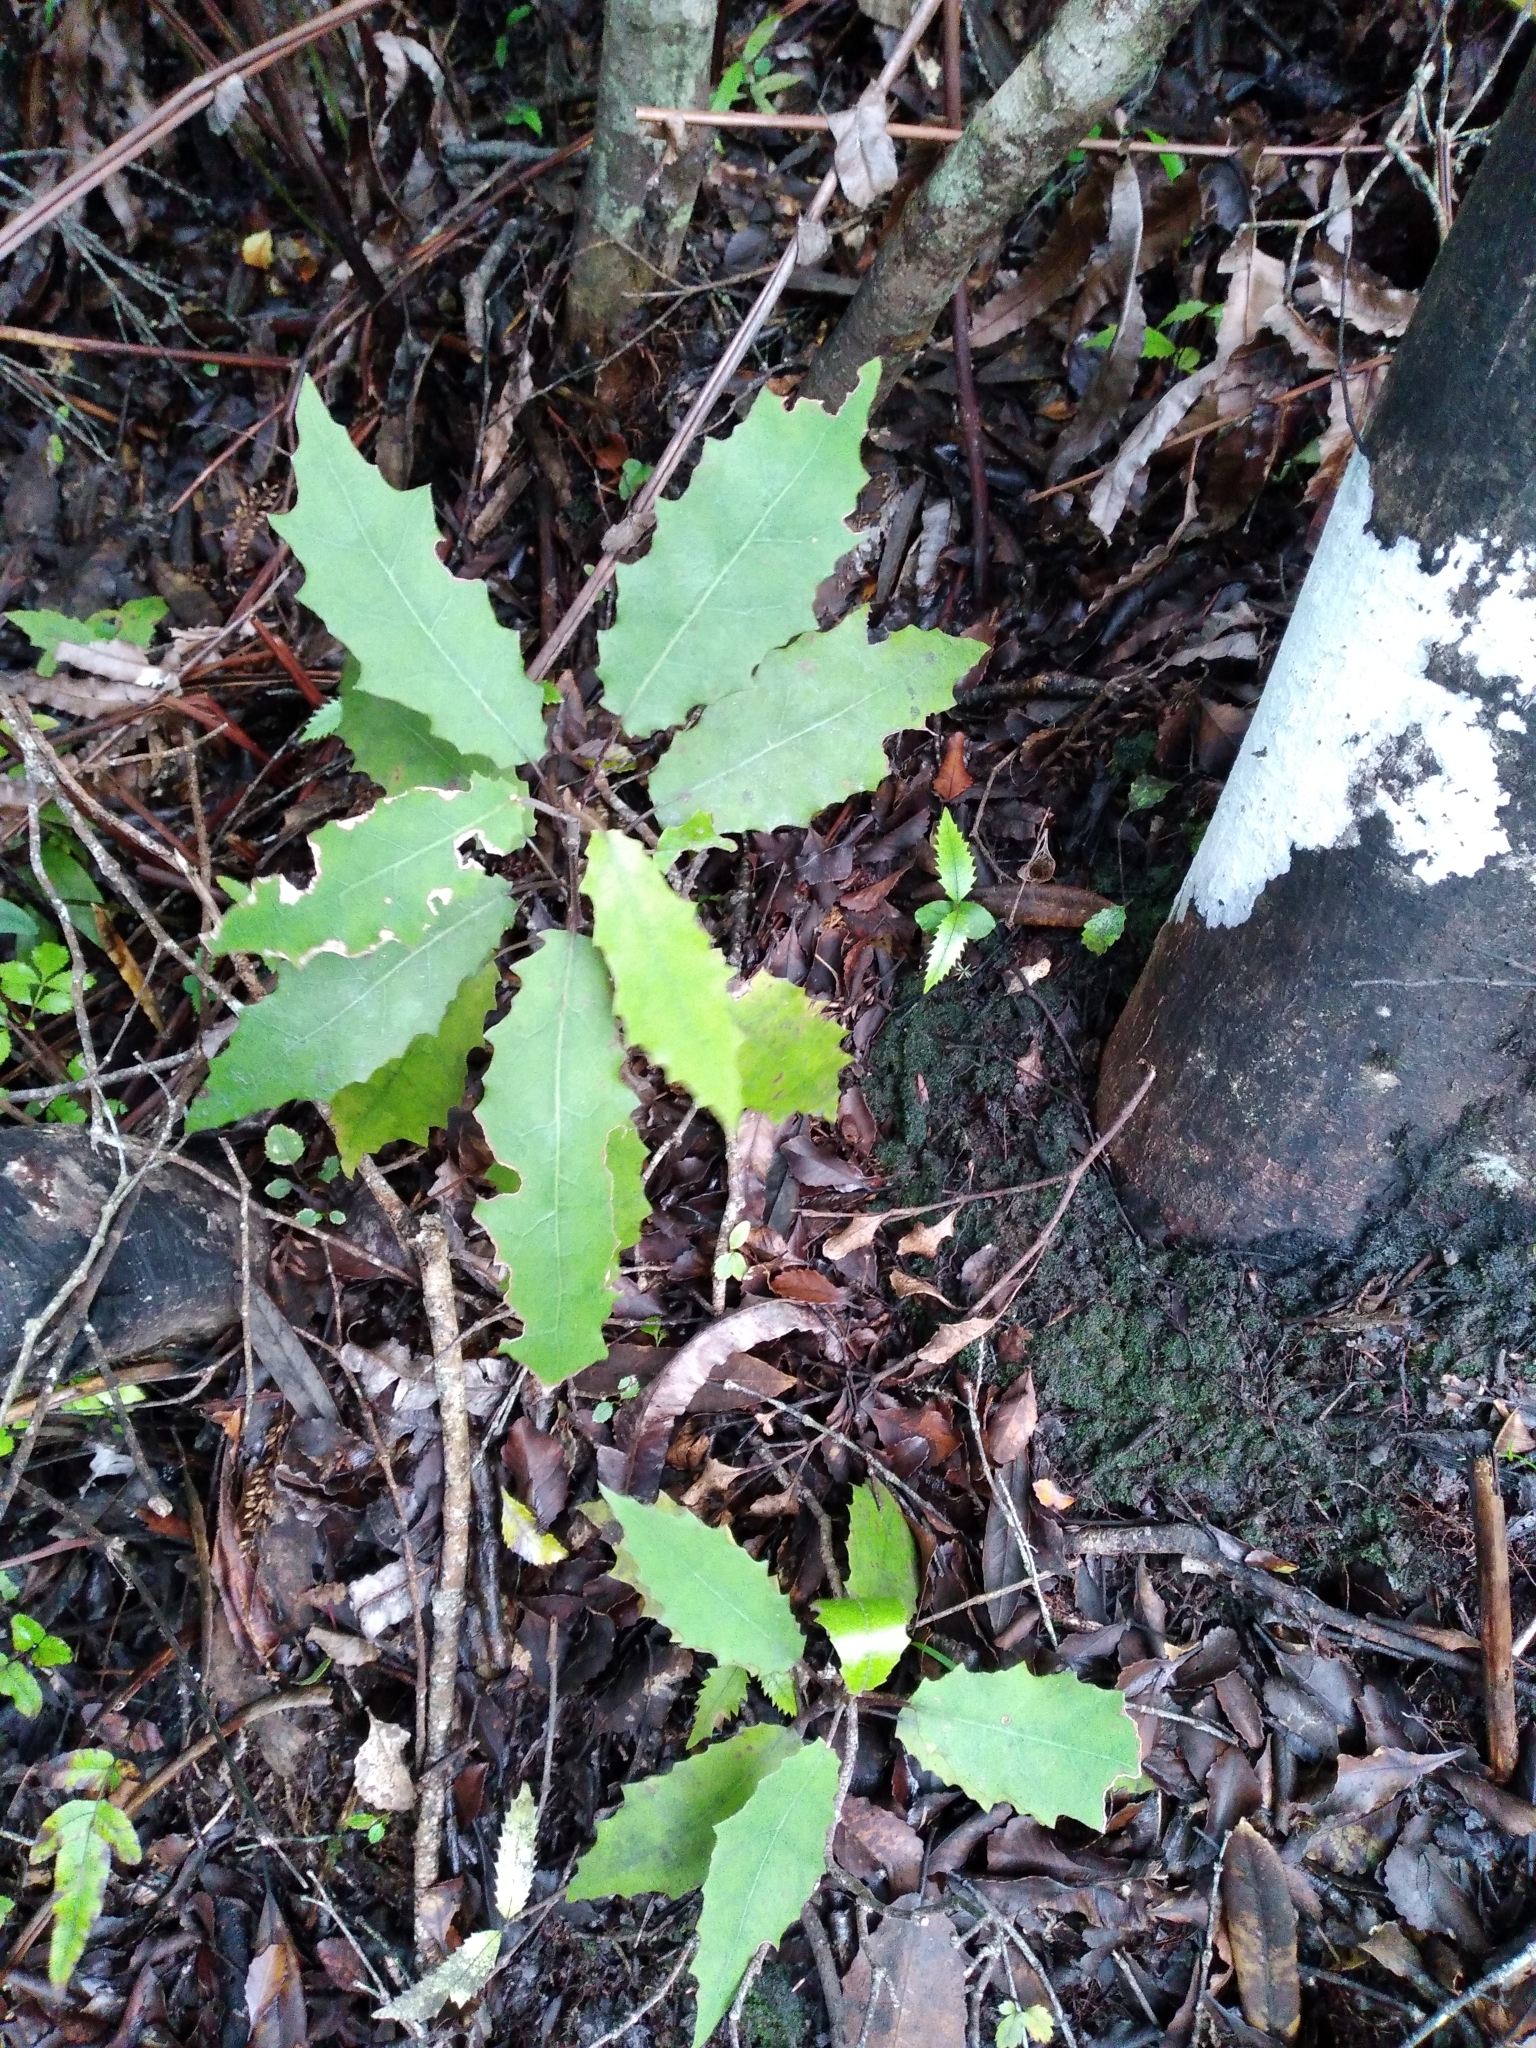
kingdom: Plantae
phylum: Tracheophyta
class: Magnoliopsida
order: Asterales
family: Asteraceae
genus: Brachyglottis
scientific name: Brachyglottis myrianthos
